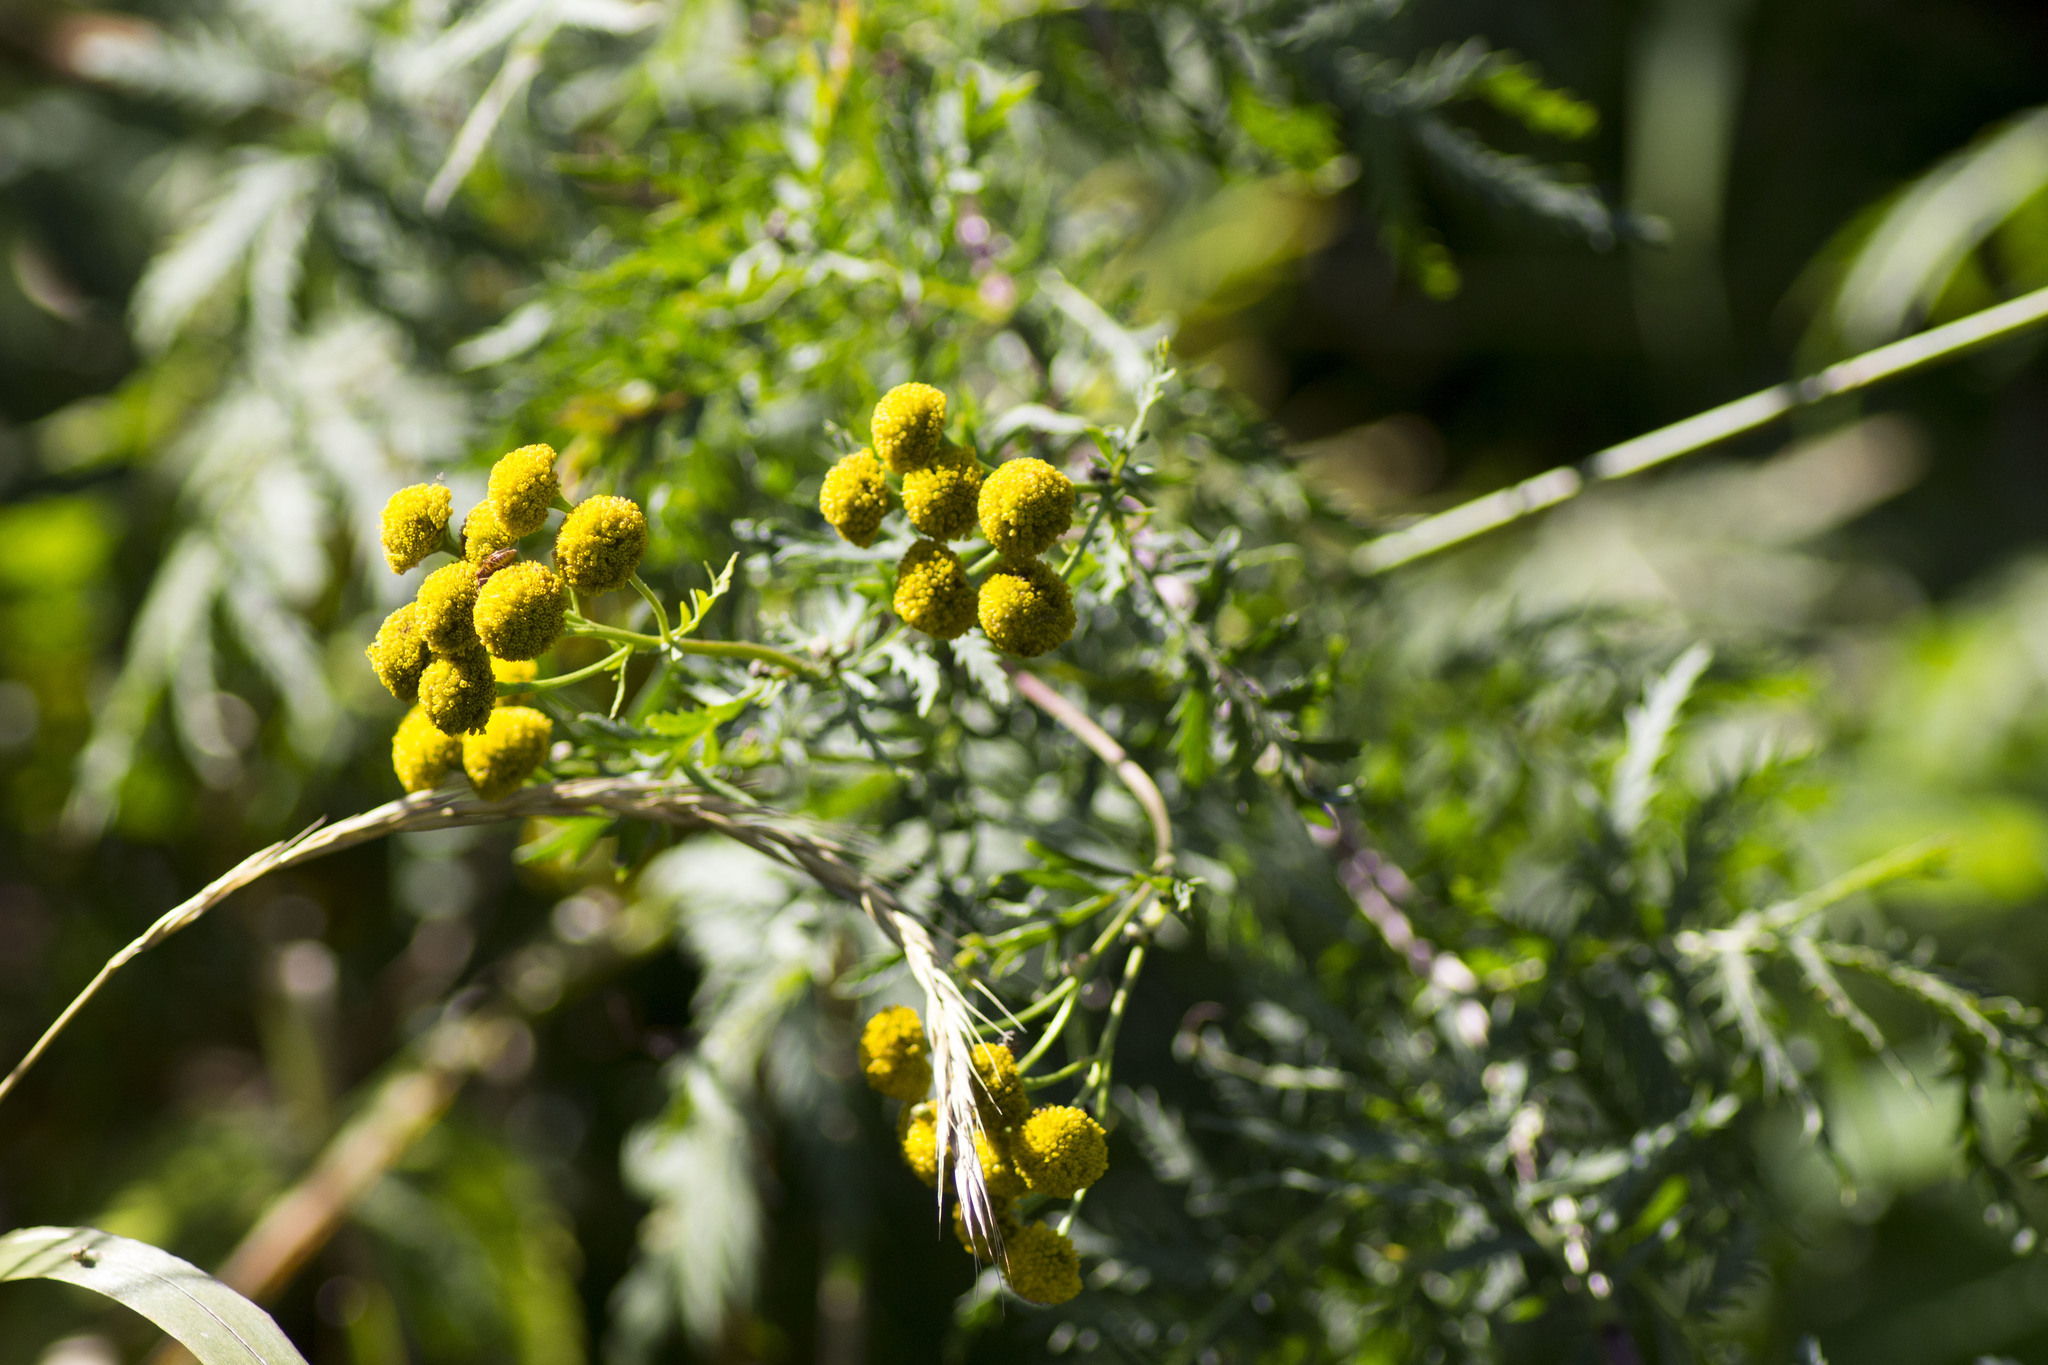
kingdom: Plantae
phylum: Tracheophyta
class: Magnoliopsida
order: Asterales
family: Asteraceae
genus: Tanacetum
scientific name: Tanacetum vulgare
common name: Common tansy
